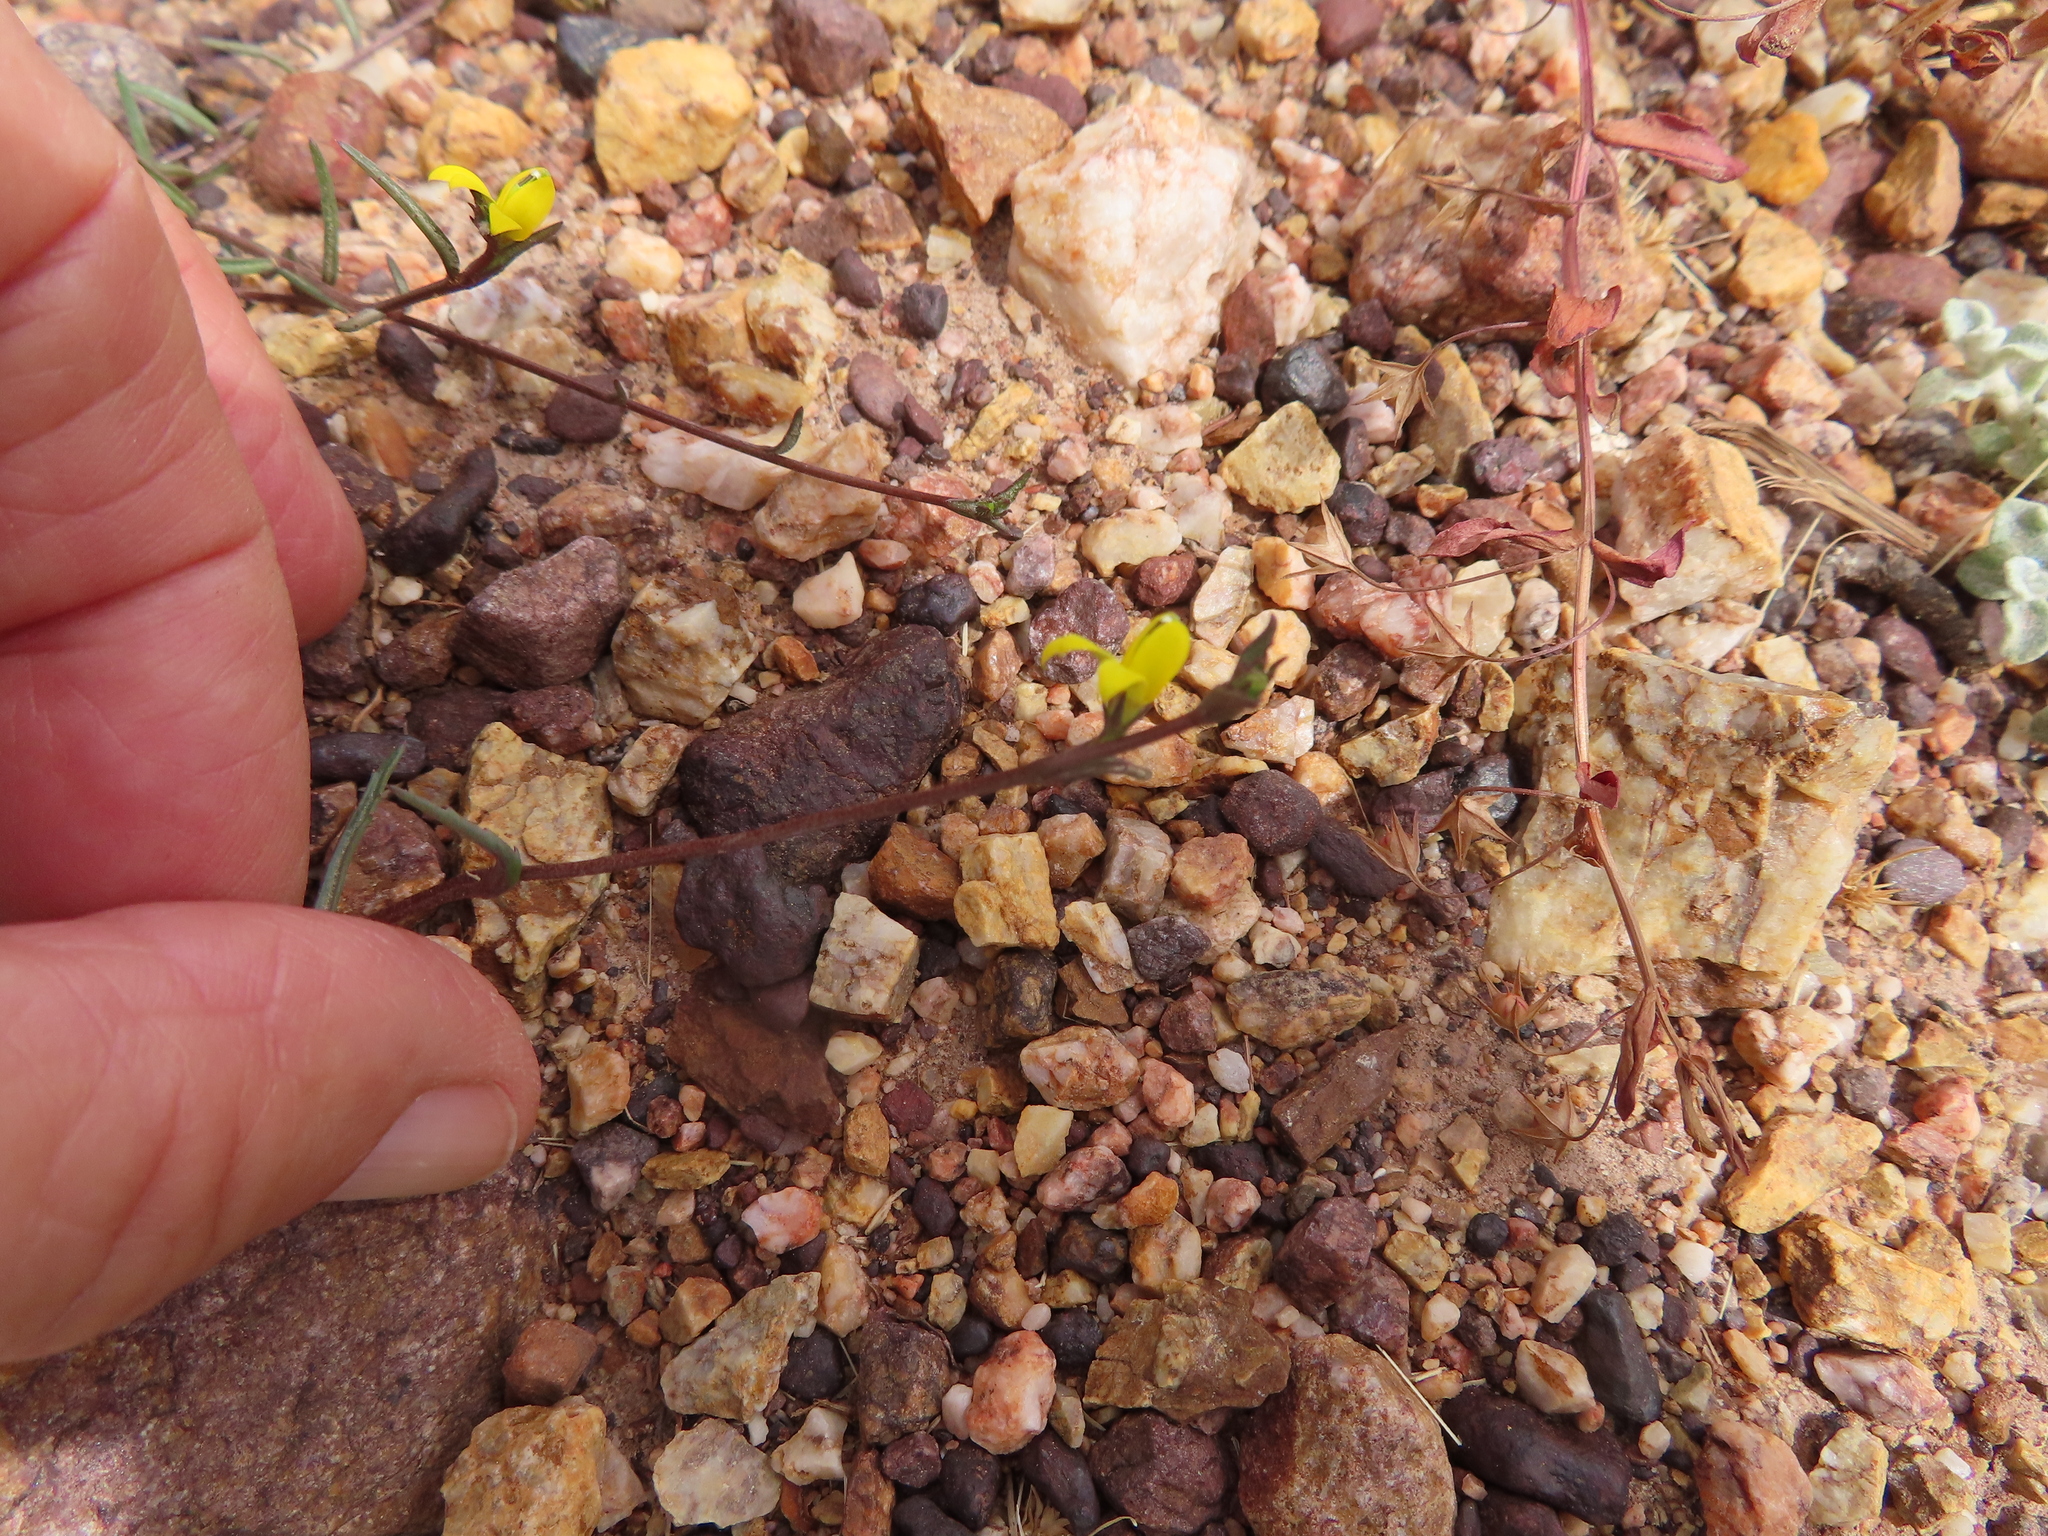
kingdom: Plantae
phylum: Tracheophyta
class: Magnoliopsida
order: Asterales
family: Campanulaceae
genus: Monopsis
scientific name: Monopsis lutea
